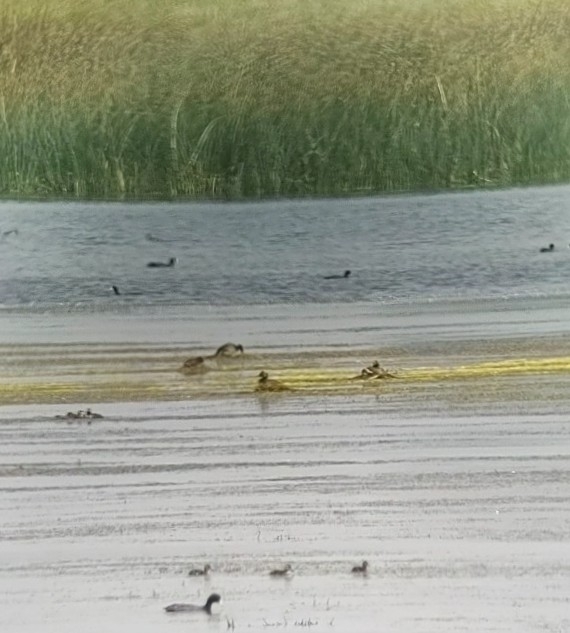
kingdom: Animalia
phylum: Chordata
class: Aves
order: Podicipediformes
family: Podicipedidae
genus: Podiceps
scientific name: Podiceps nigricollis
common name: Black-necked grebe
